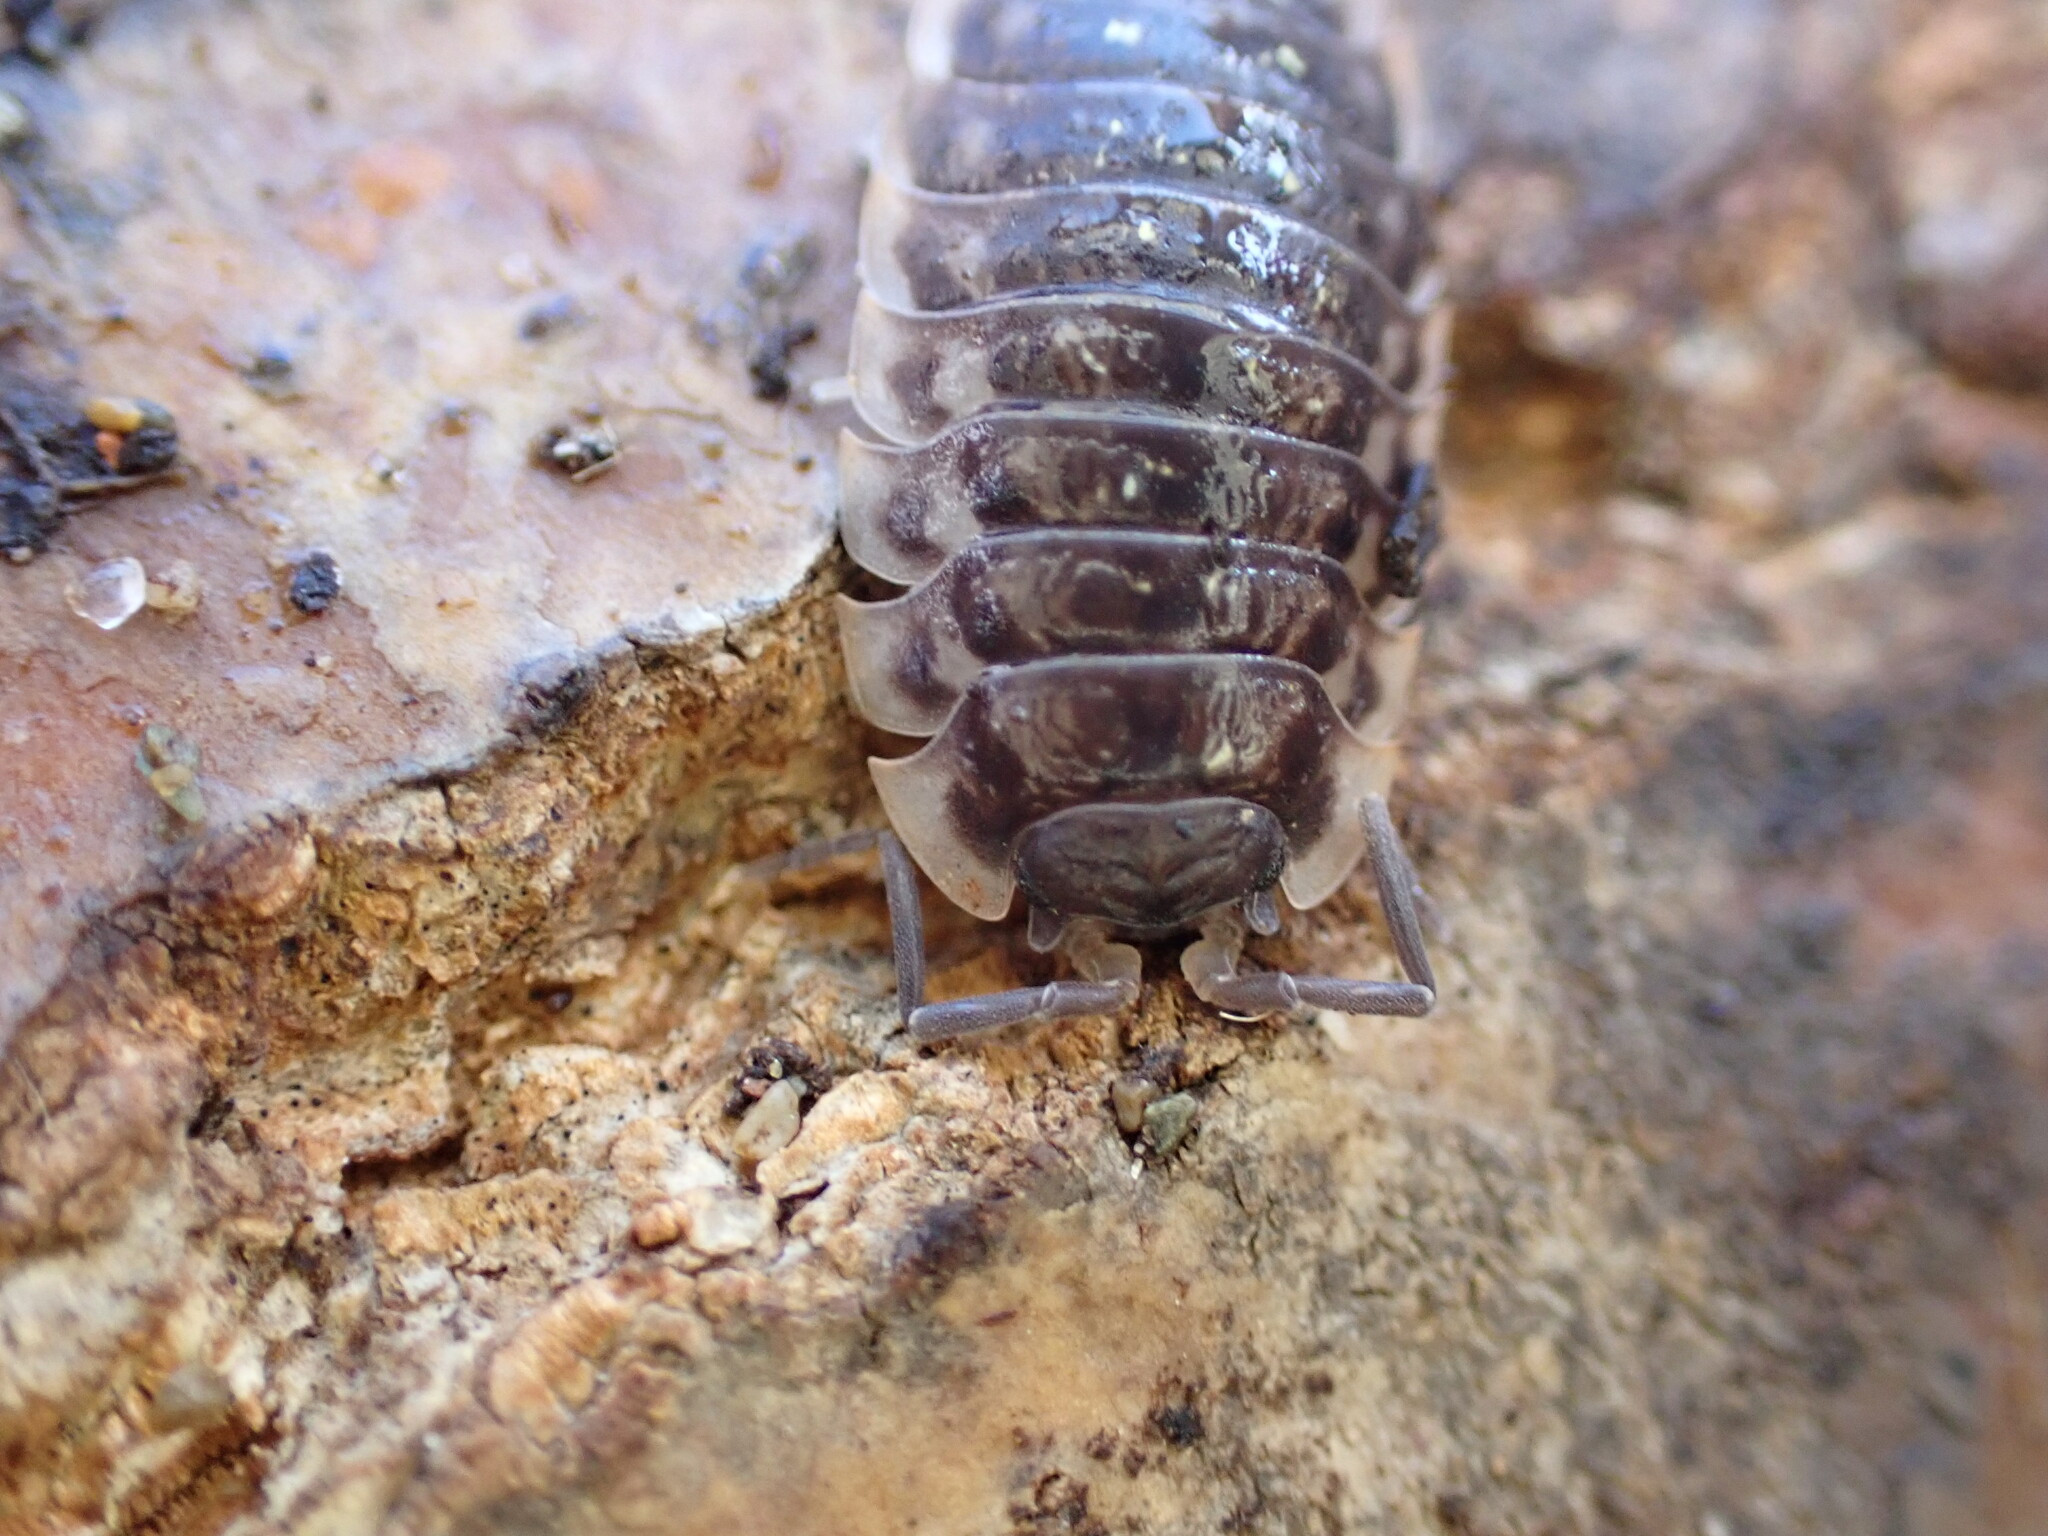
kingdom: Animalia
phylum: Arthropoda
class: Malacostraca
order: Isopoda
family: Oniscidae
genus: Oniscus
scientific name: Oniscus asellus
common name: Common shiny woodlouse
